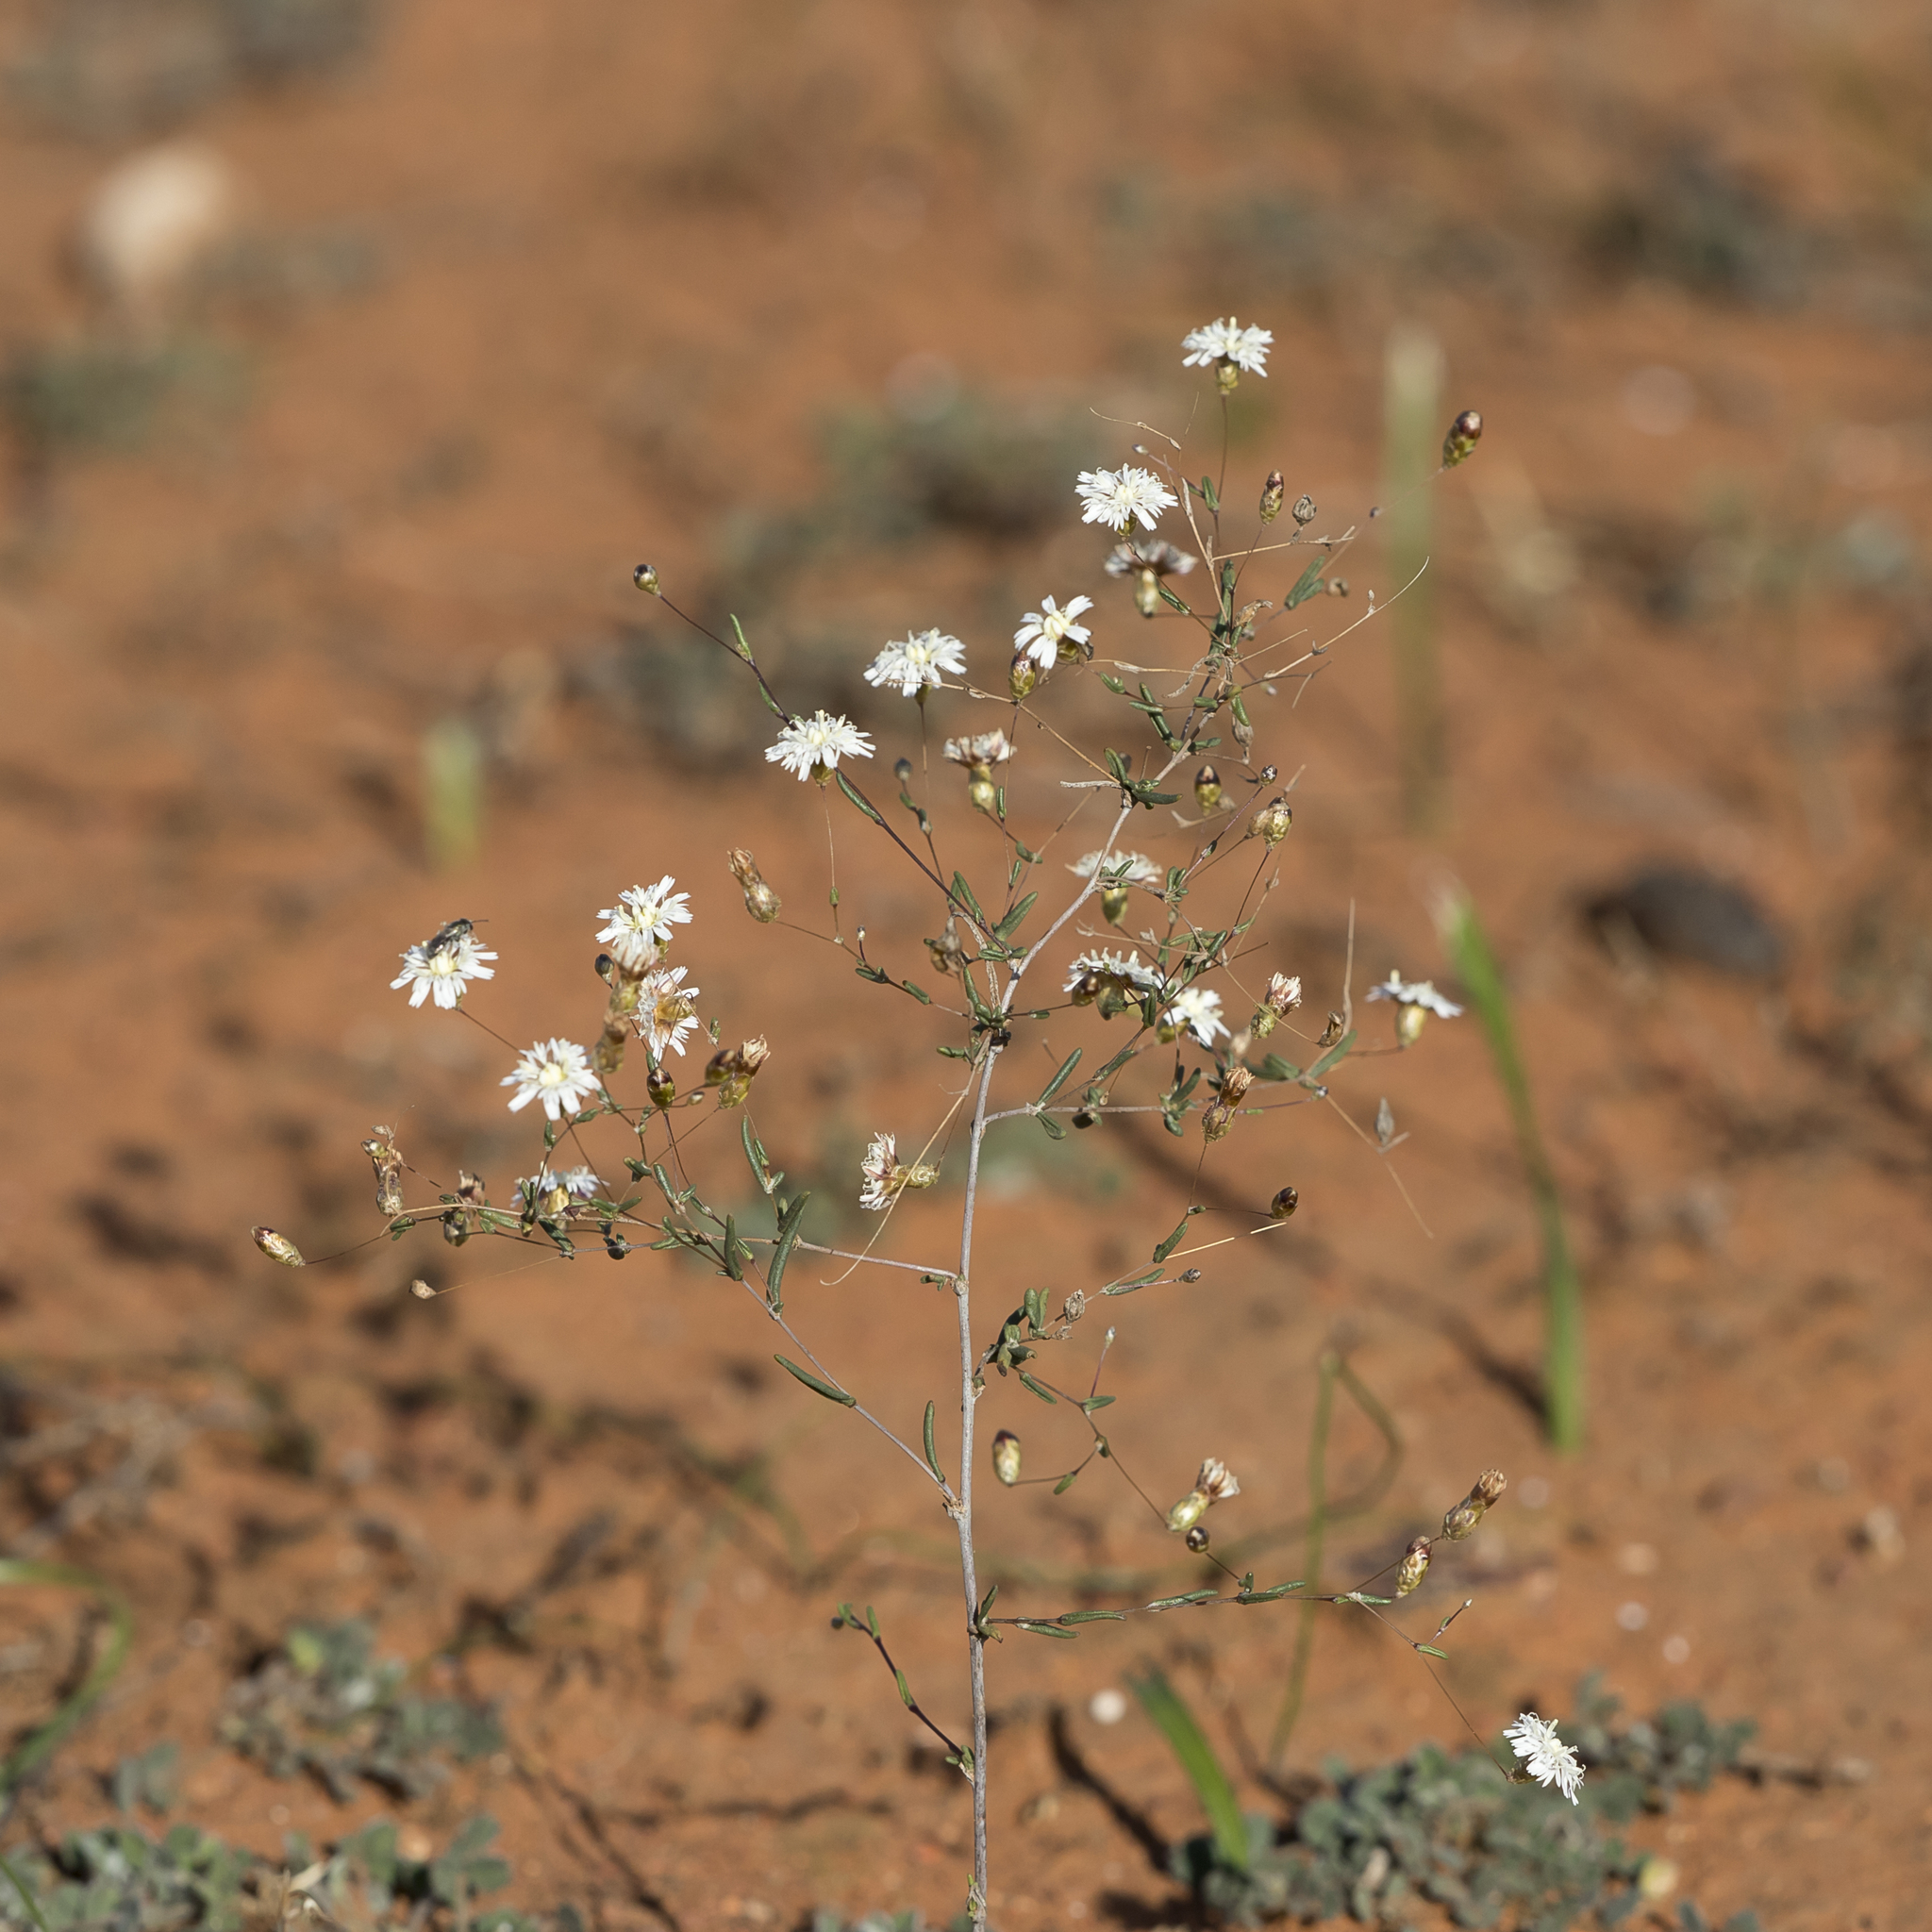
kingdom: Plantae
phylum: Tracheophyta
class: Magnoliopsida
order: Asterales
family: Asteraceae
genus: Siemssenia
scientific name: Siemssenia capillaris
